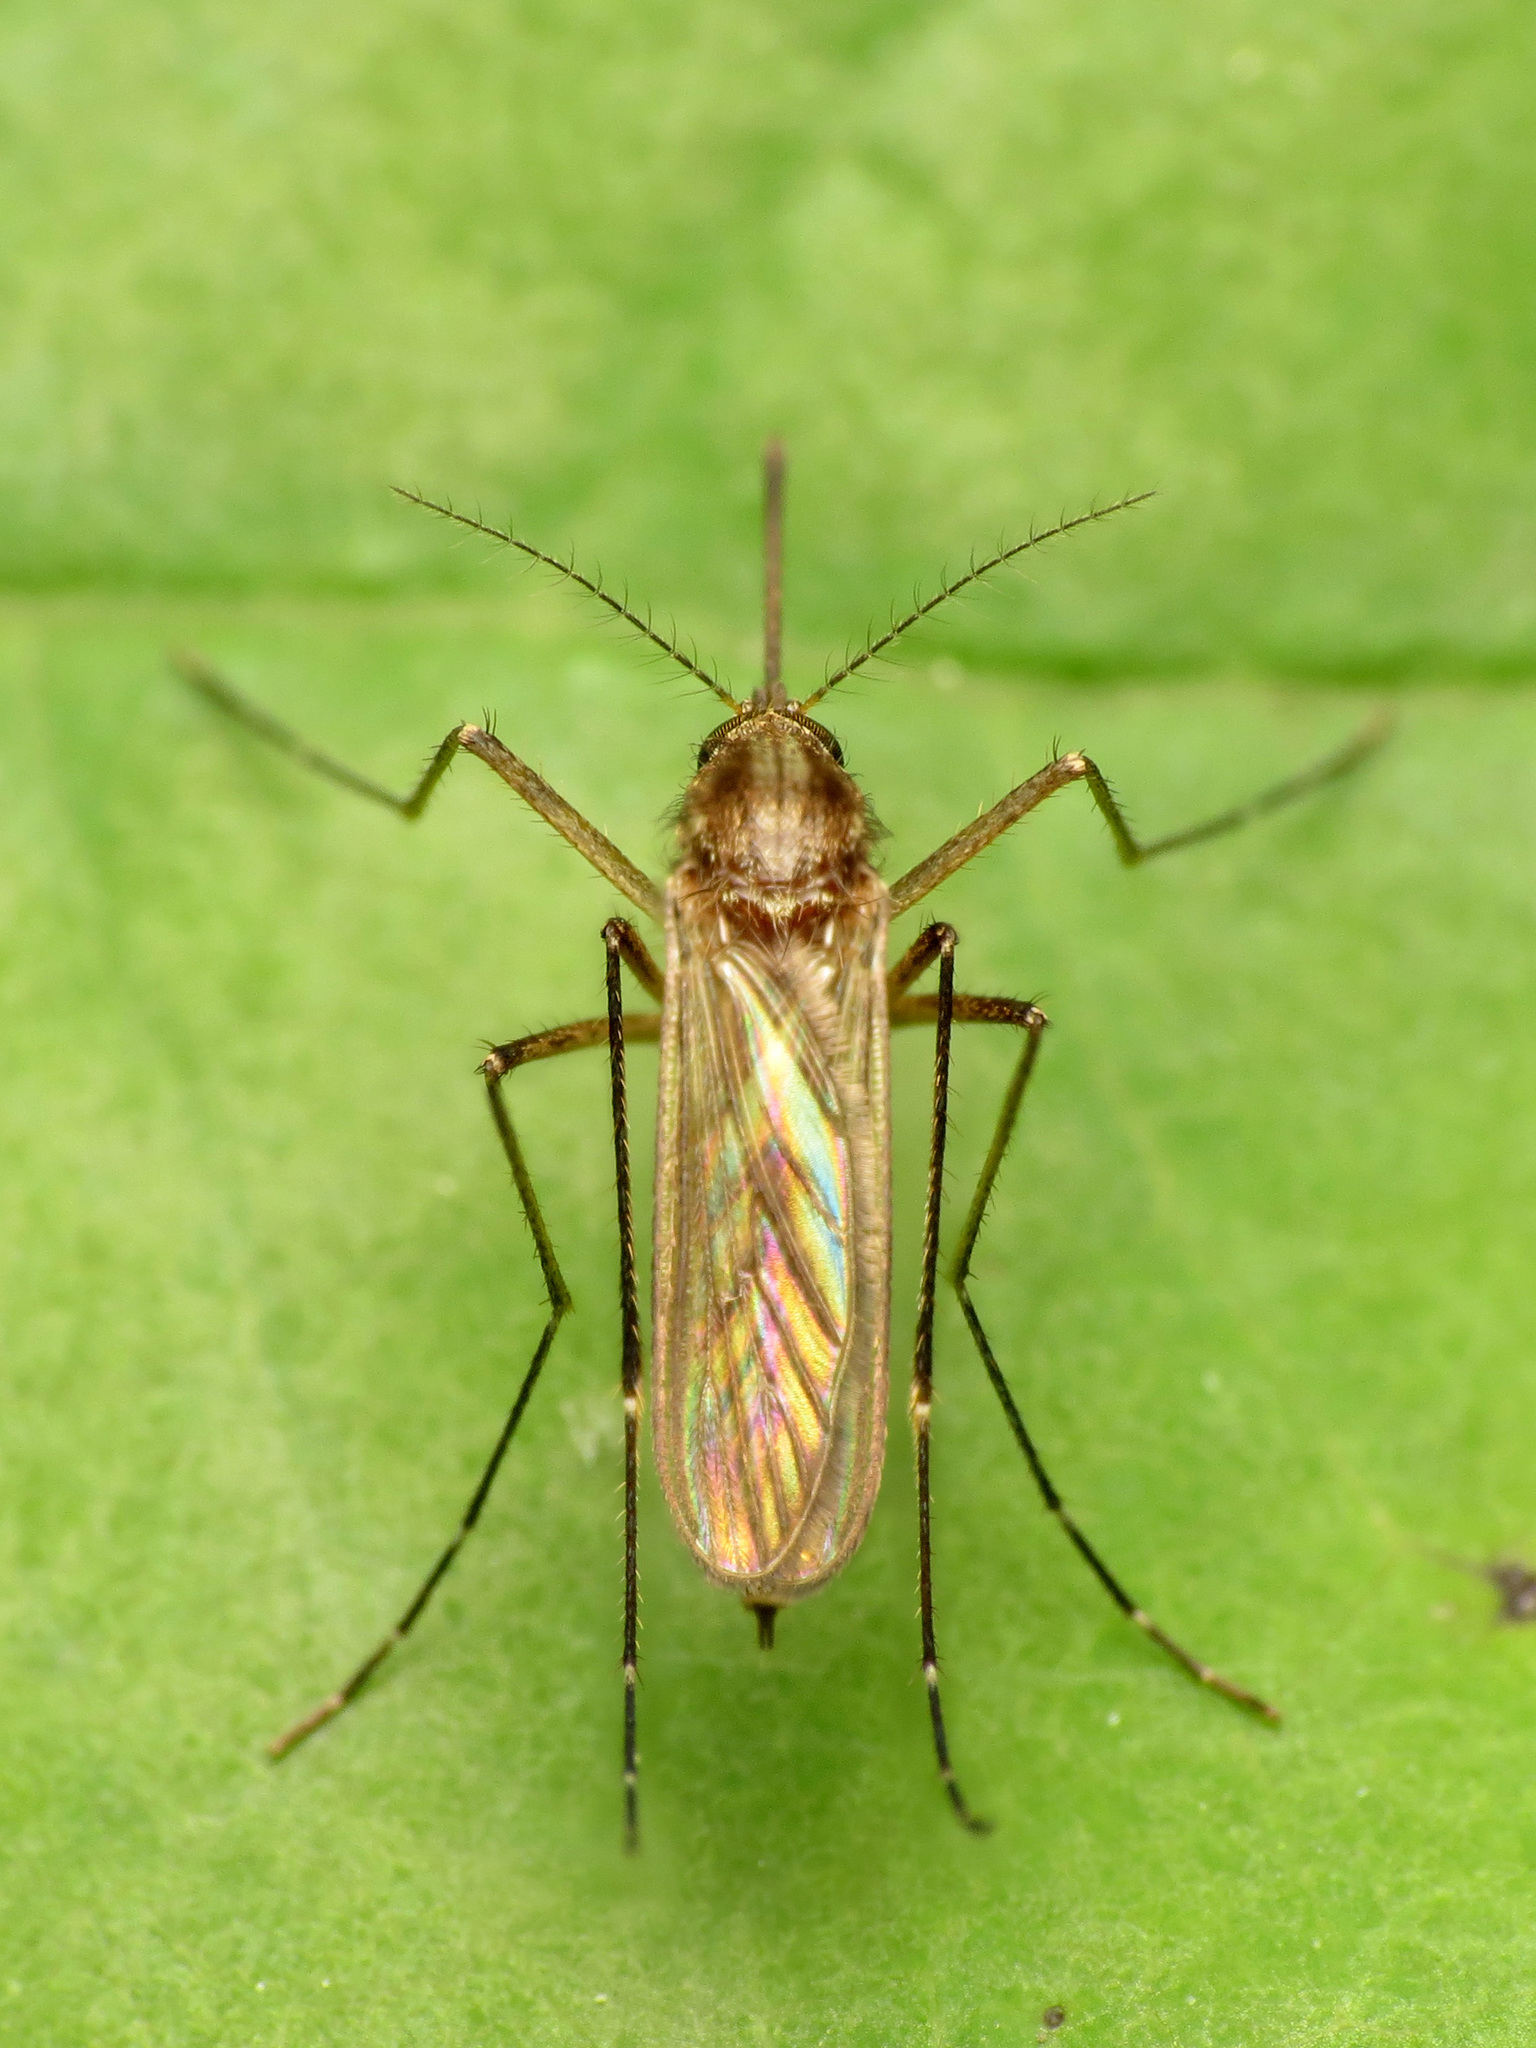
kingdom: Animalia
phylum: Arthropoda
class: Insecta
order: Diptera
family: Culicidae
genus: Aedes
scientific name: Aedes vexans
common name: Inland floodwater mosquito
